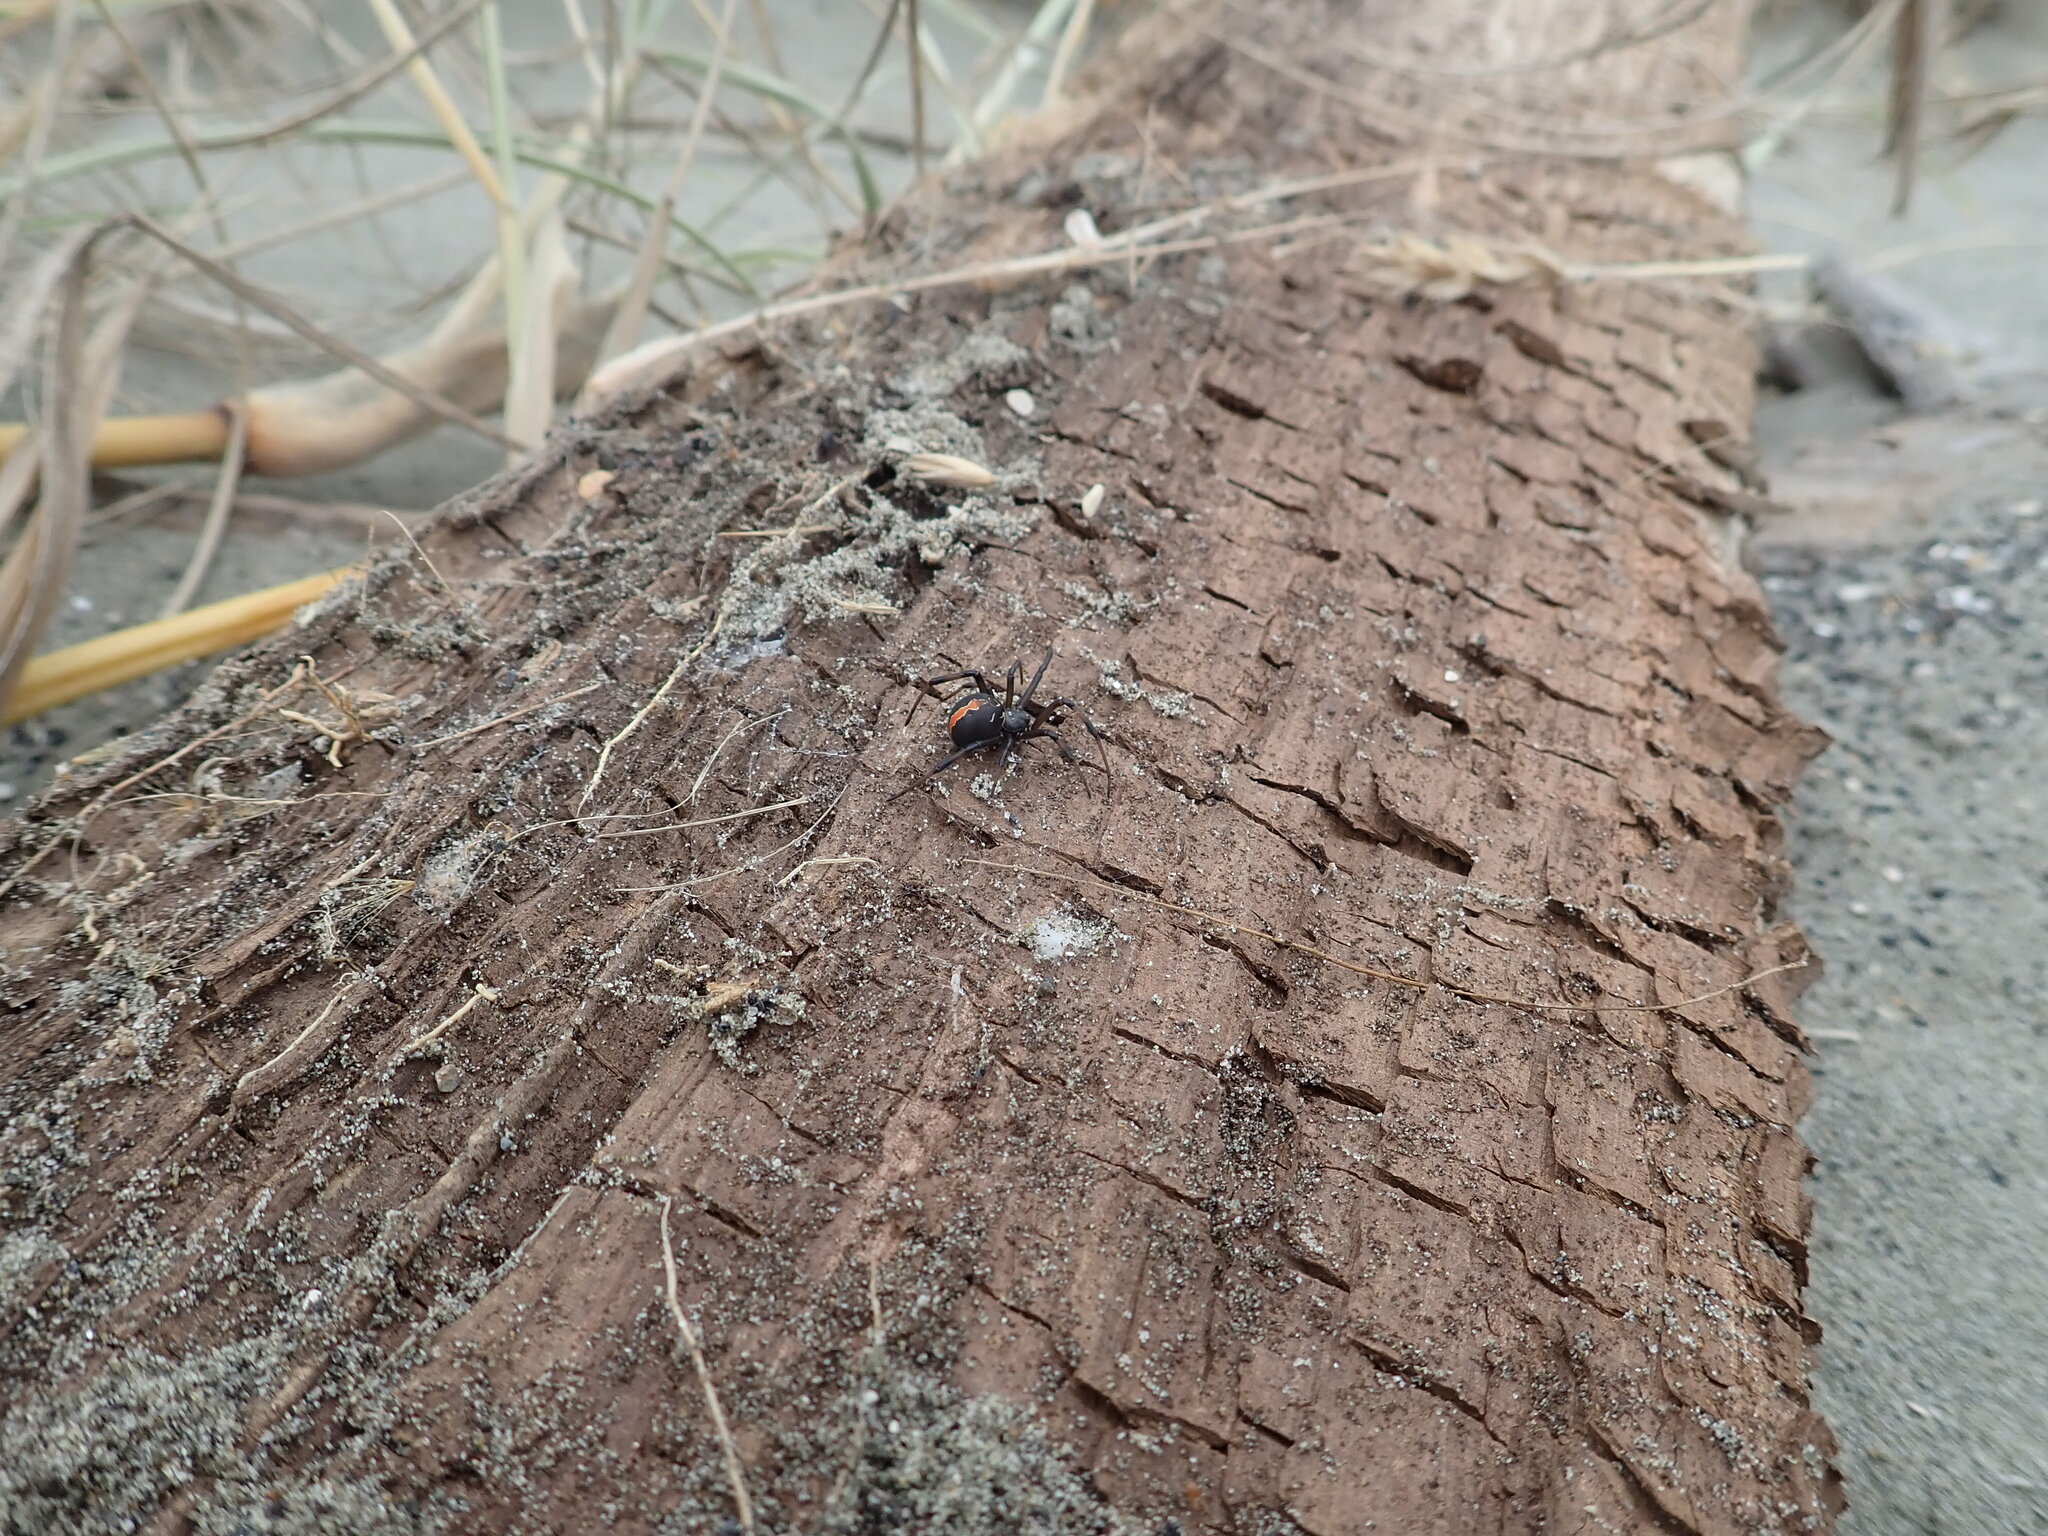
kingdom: Animalia
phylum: Arthropoda
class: Arachnida
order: Araneae
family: Theridiidae
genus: Latrodectus
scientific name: Latrodectus katipo
